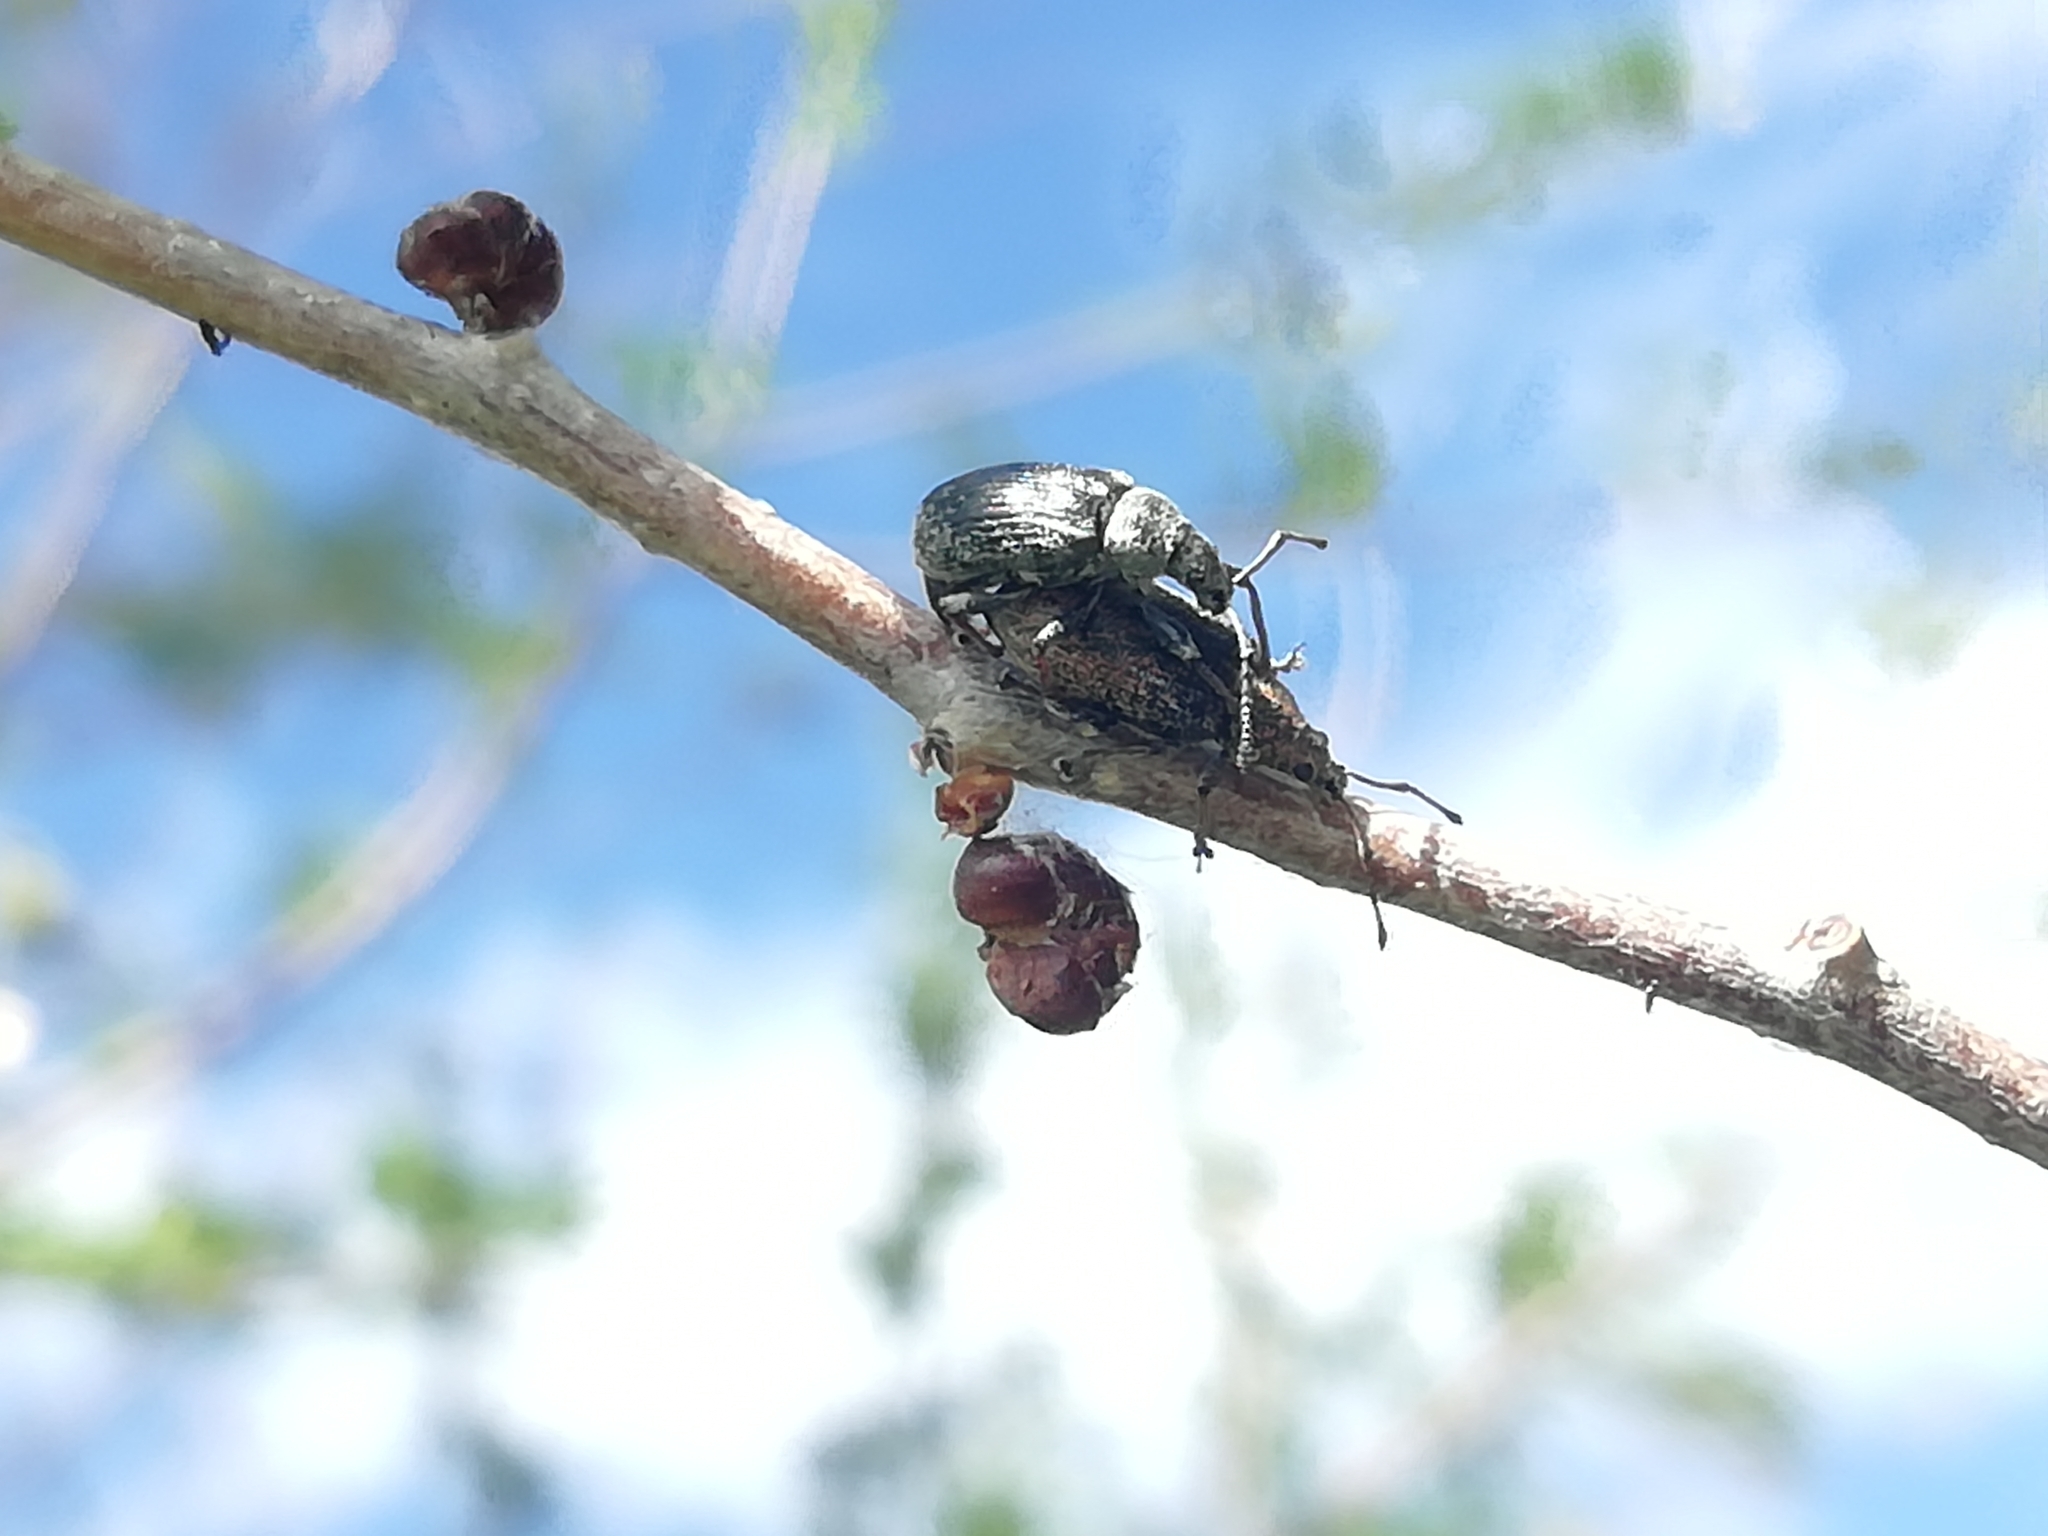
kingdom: Animalia
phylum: Arthropoda
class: Insecta
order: Coleoptera
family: Curculionidae
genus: Phyllobius
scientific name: Phyllobius pyri
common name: Common leaf weevil
